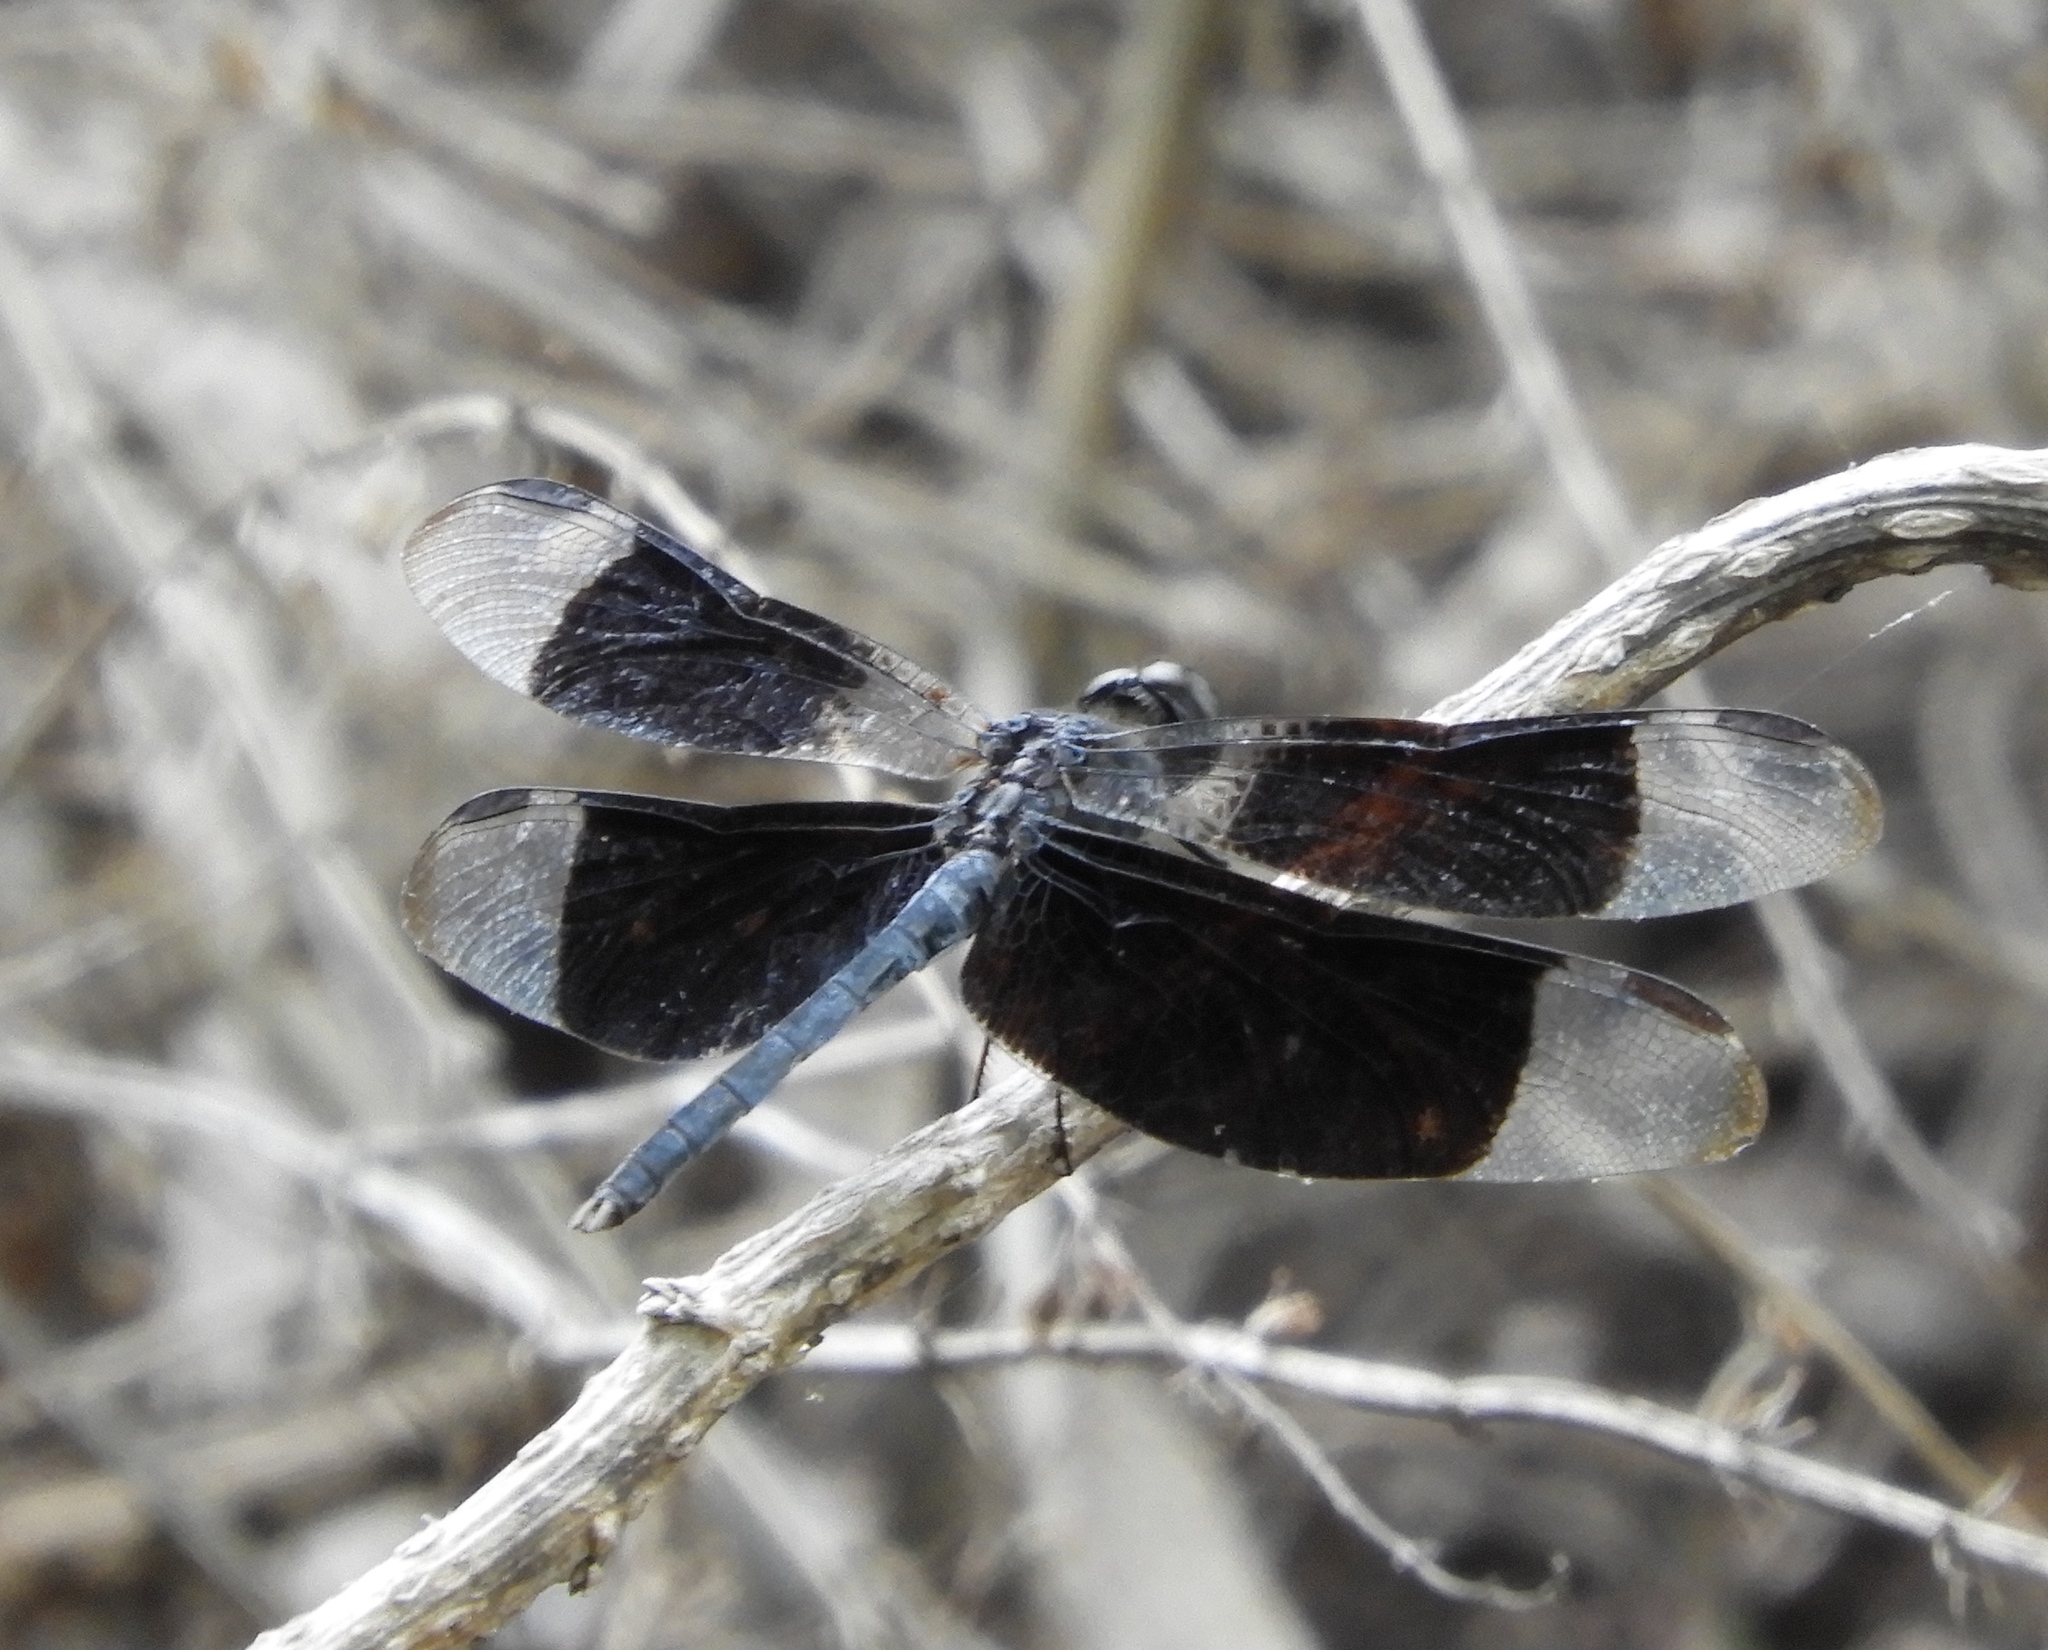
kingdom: Animalia
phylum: Arthropoda
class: Insecta
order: Odonata
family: Libellulidae
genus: Erythrodiplax
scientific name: Erythrodiplax funerea
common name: Black-winged dragonlet
